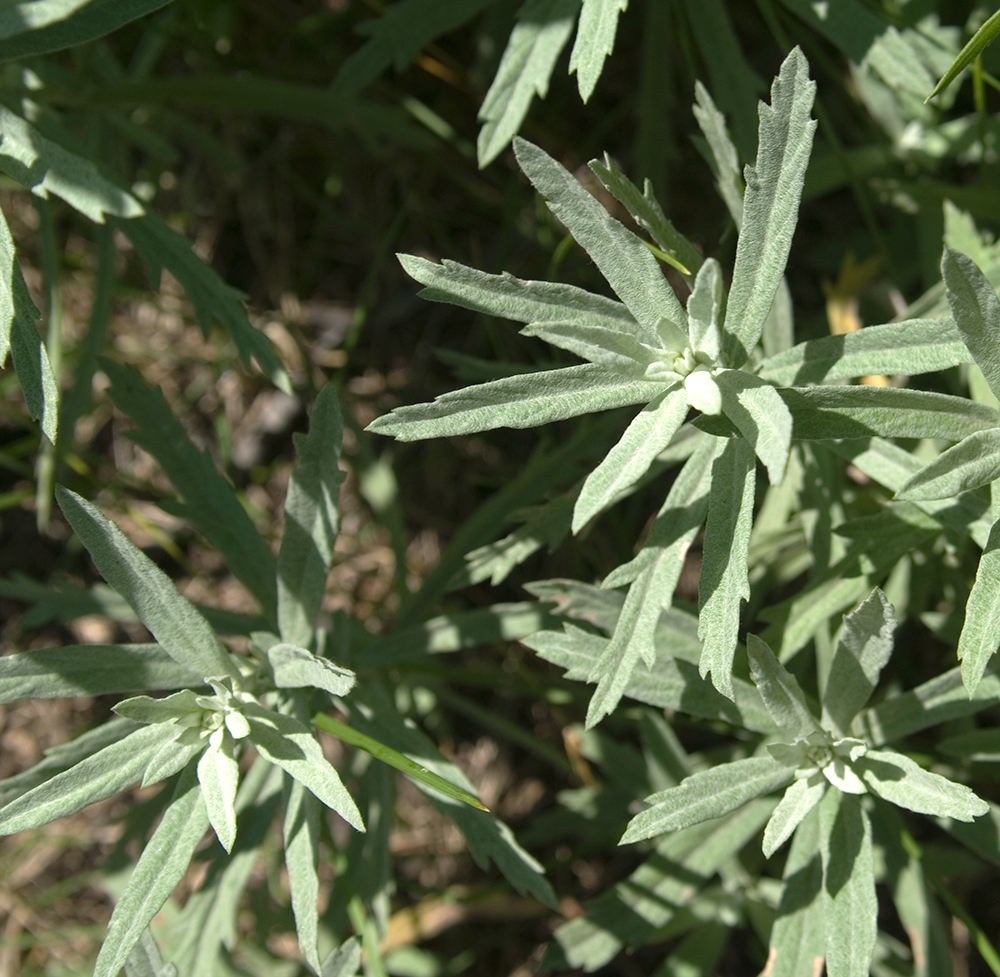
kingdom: Plantae
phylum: Tracheophyta
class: Magnoliopsida
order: Asterales
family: Asteraceae
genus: Artemisia
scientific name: Artemisia ludoviciana
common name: Western mugwort
